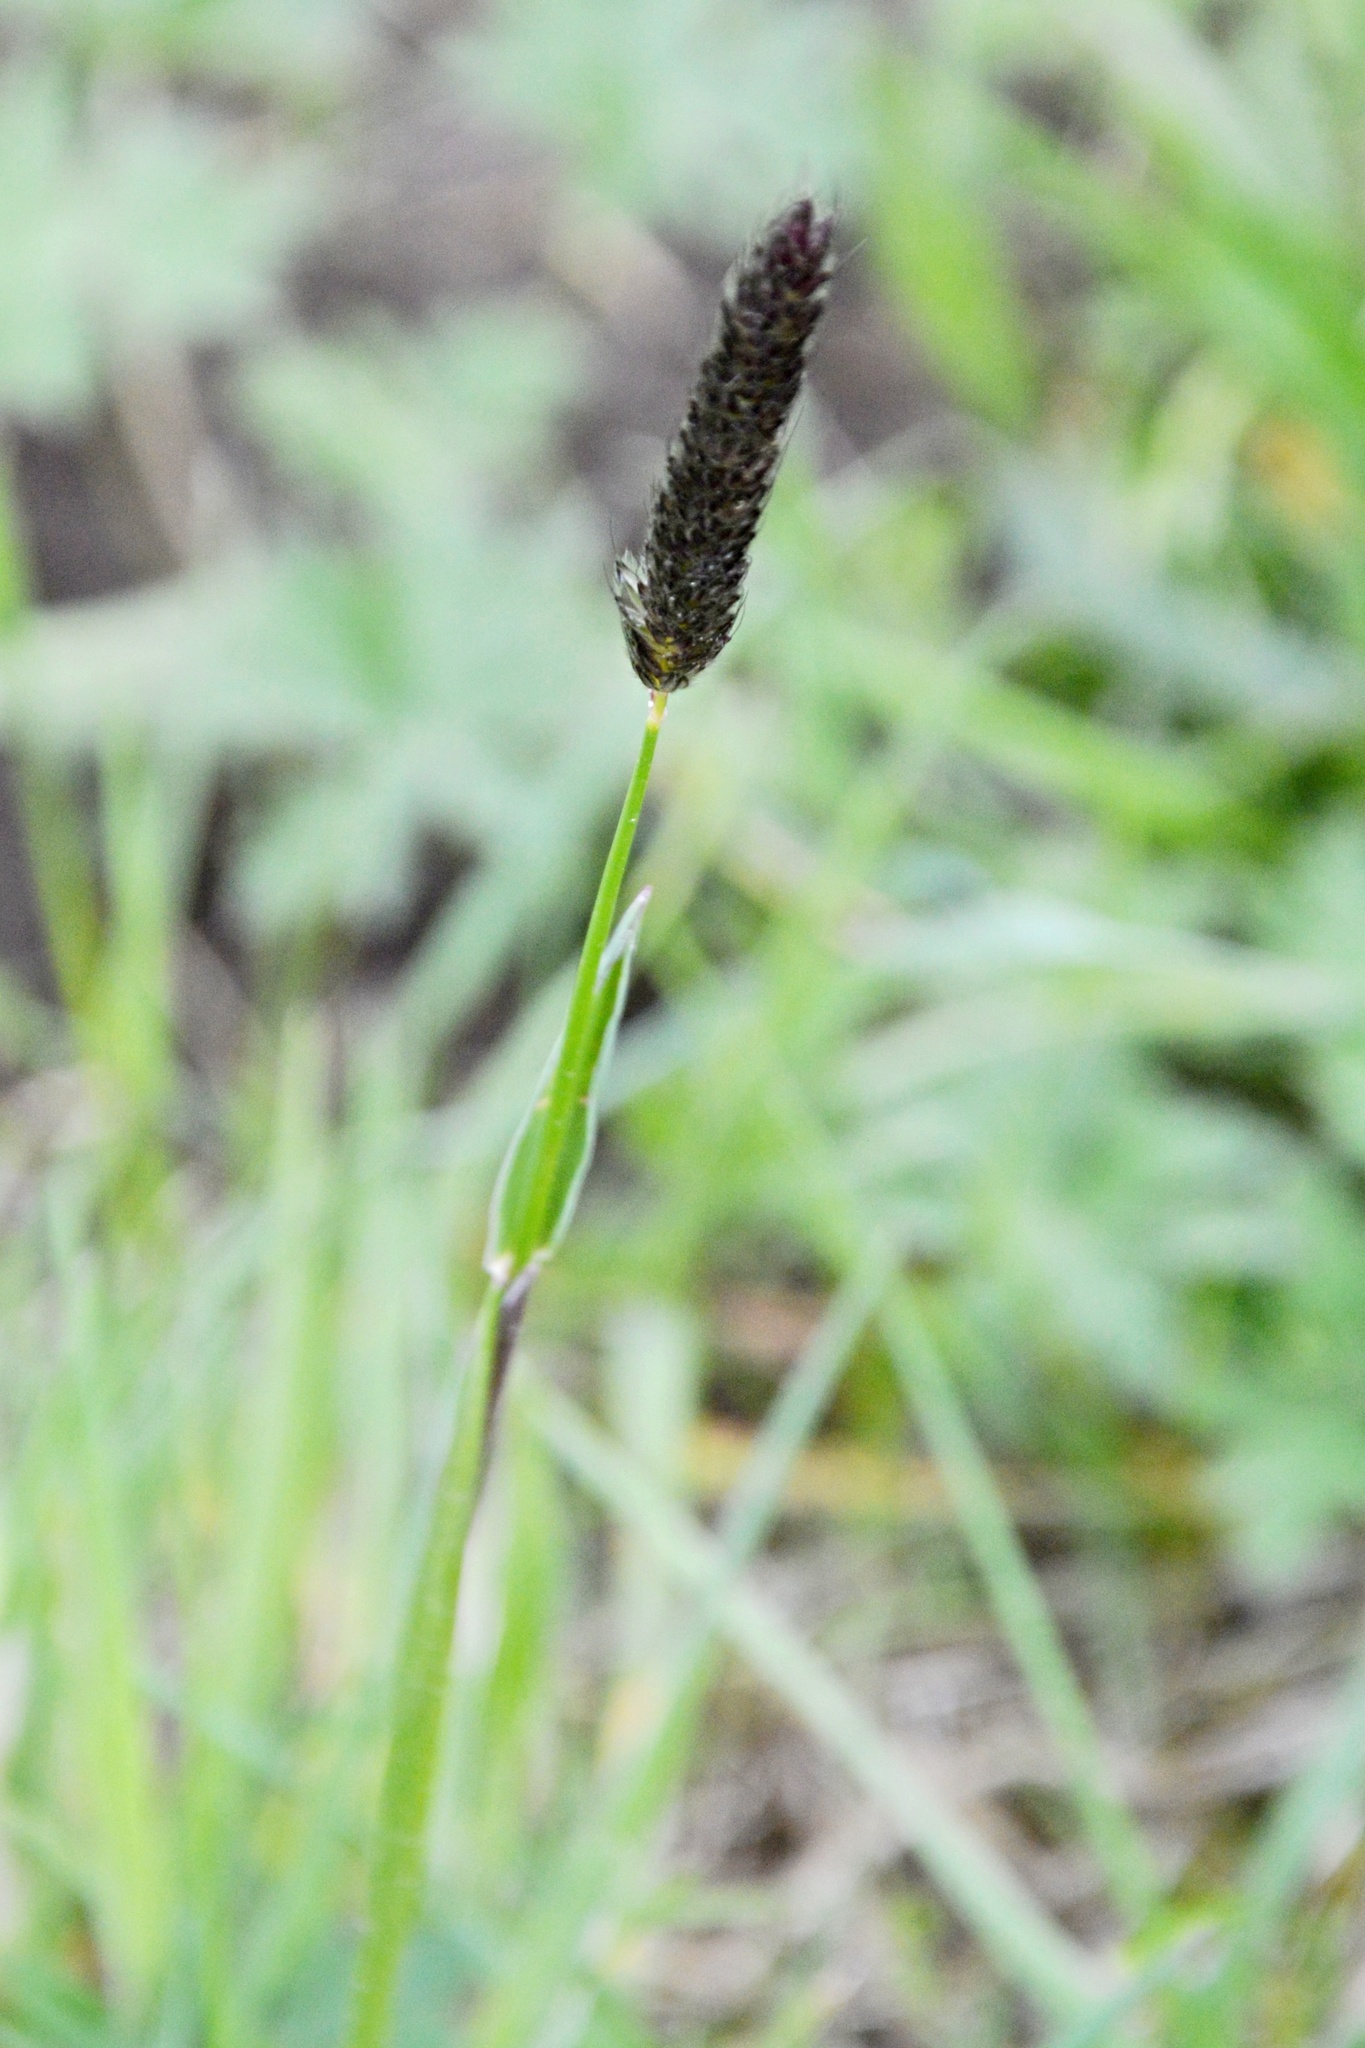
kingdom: Plantae
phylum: Tracheophyta
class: Liliopsida
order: Poales
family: Poaceae
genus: Alopecurus
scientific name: Alopecurus pratensis
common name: Meadow foxtail
